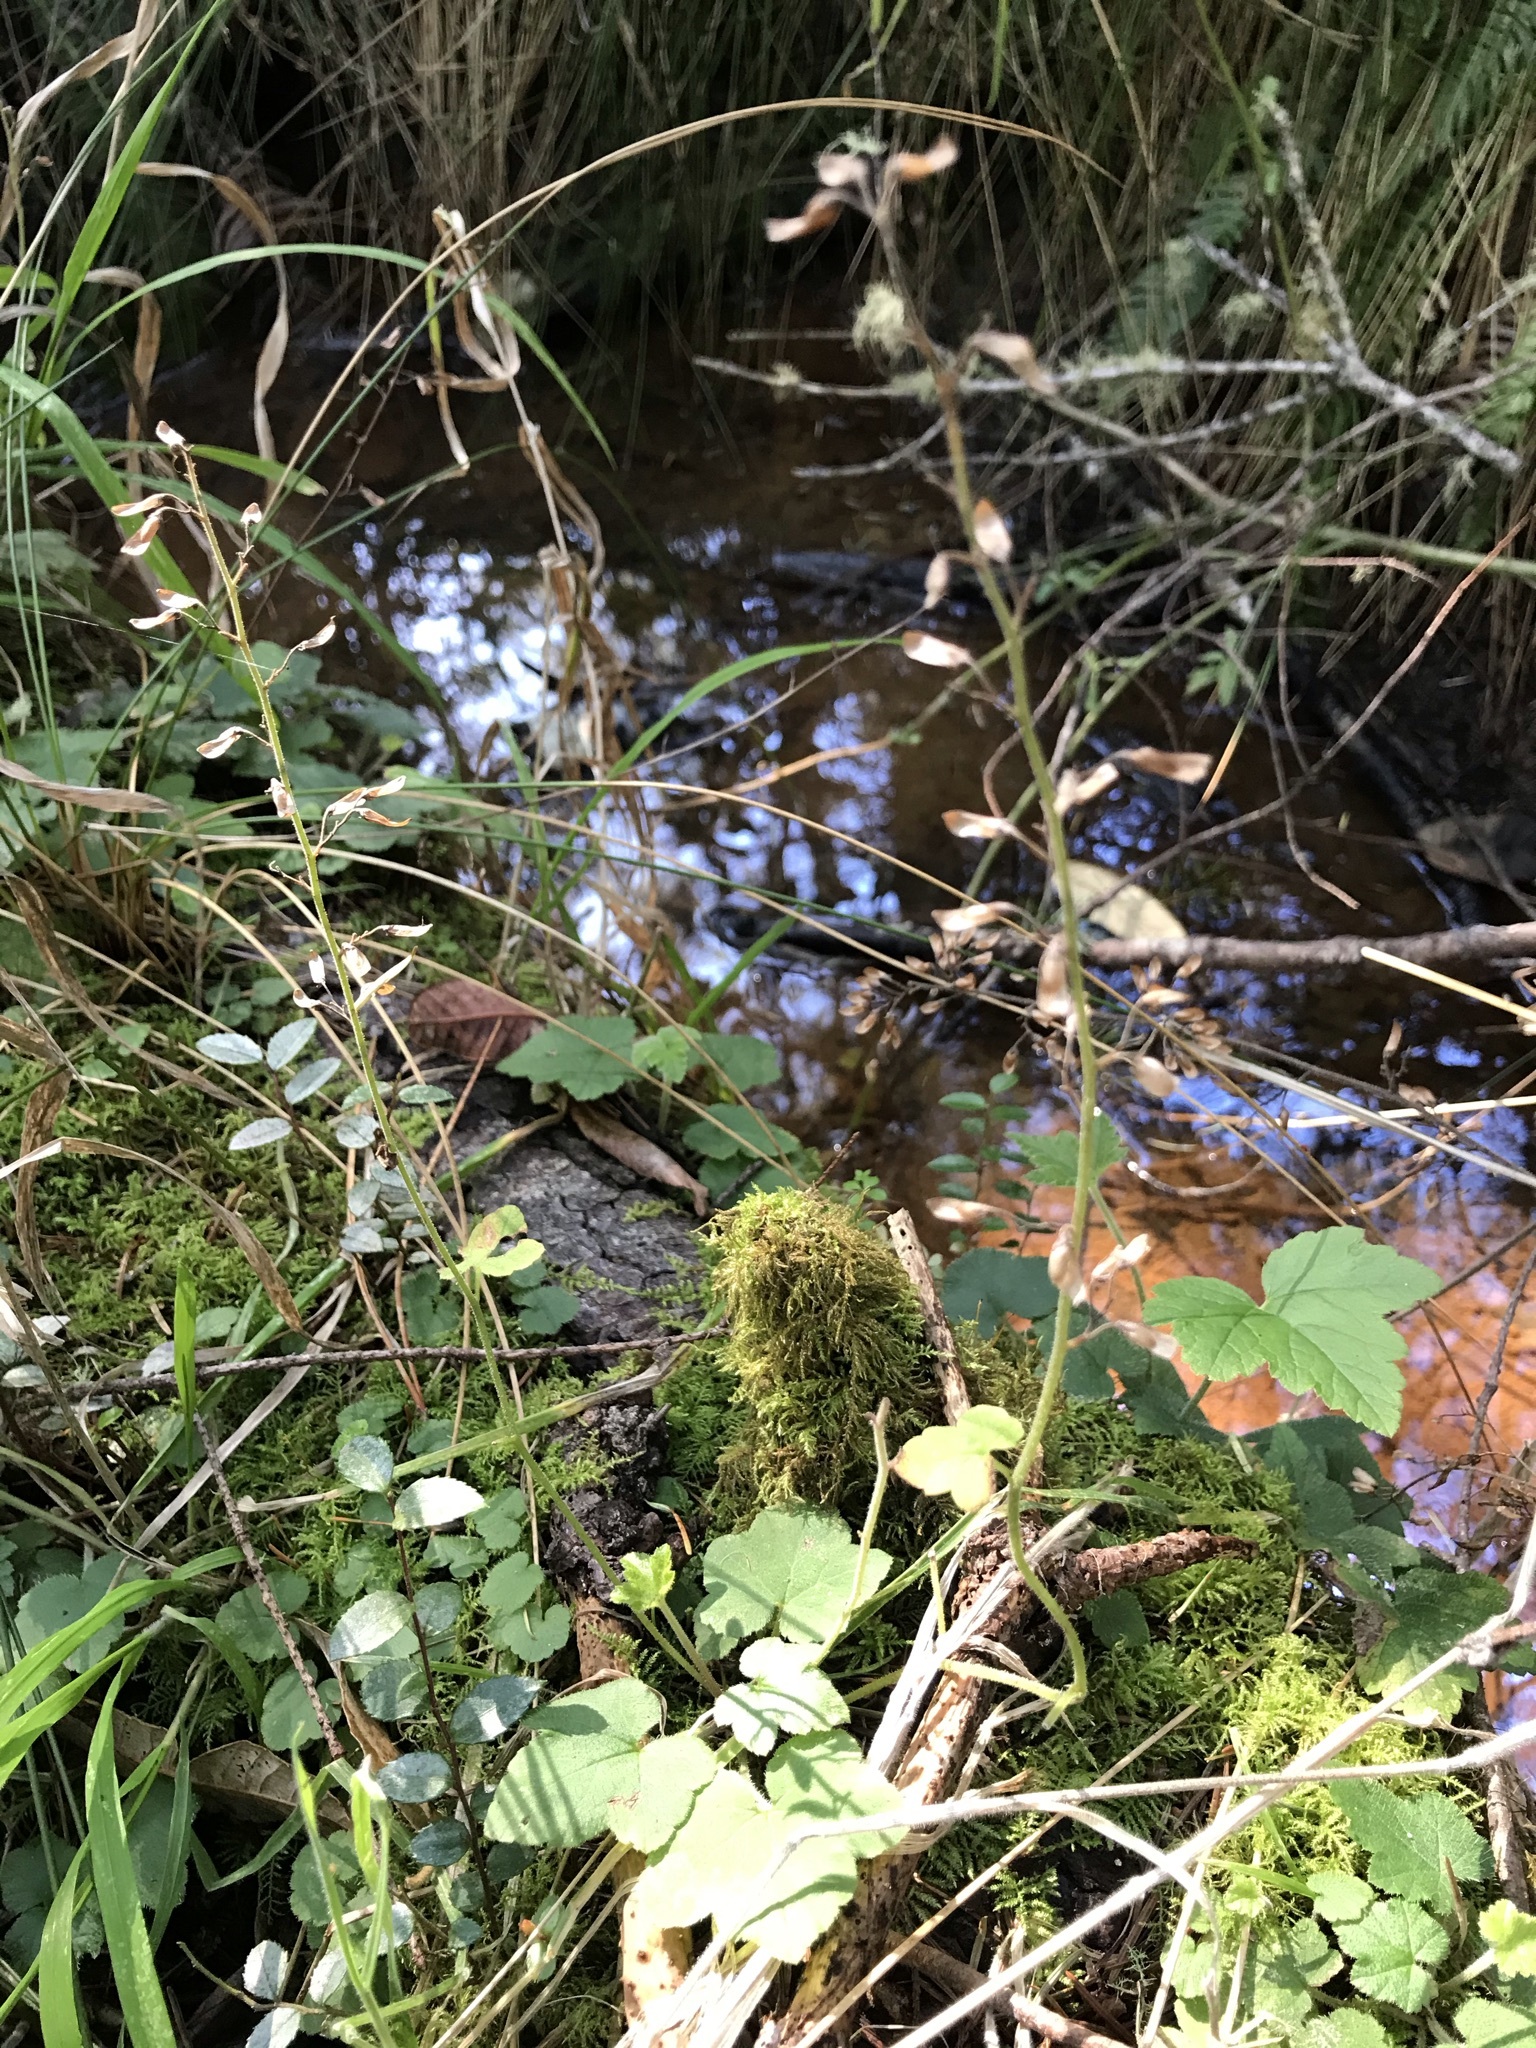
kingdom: Plantae
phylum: Tracheophyta
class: Magnoliopsida
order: Saxifragales
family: Saxifragaceae
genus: Tiarella
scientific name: Tiarella trifoliata
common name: Sugar-scoop
